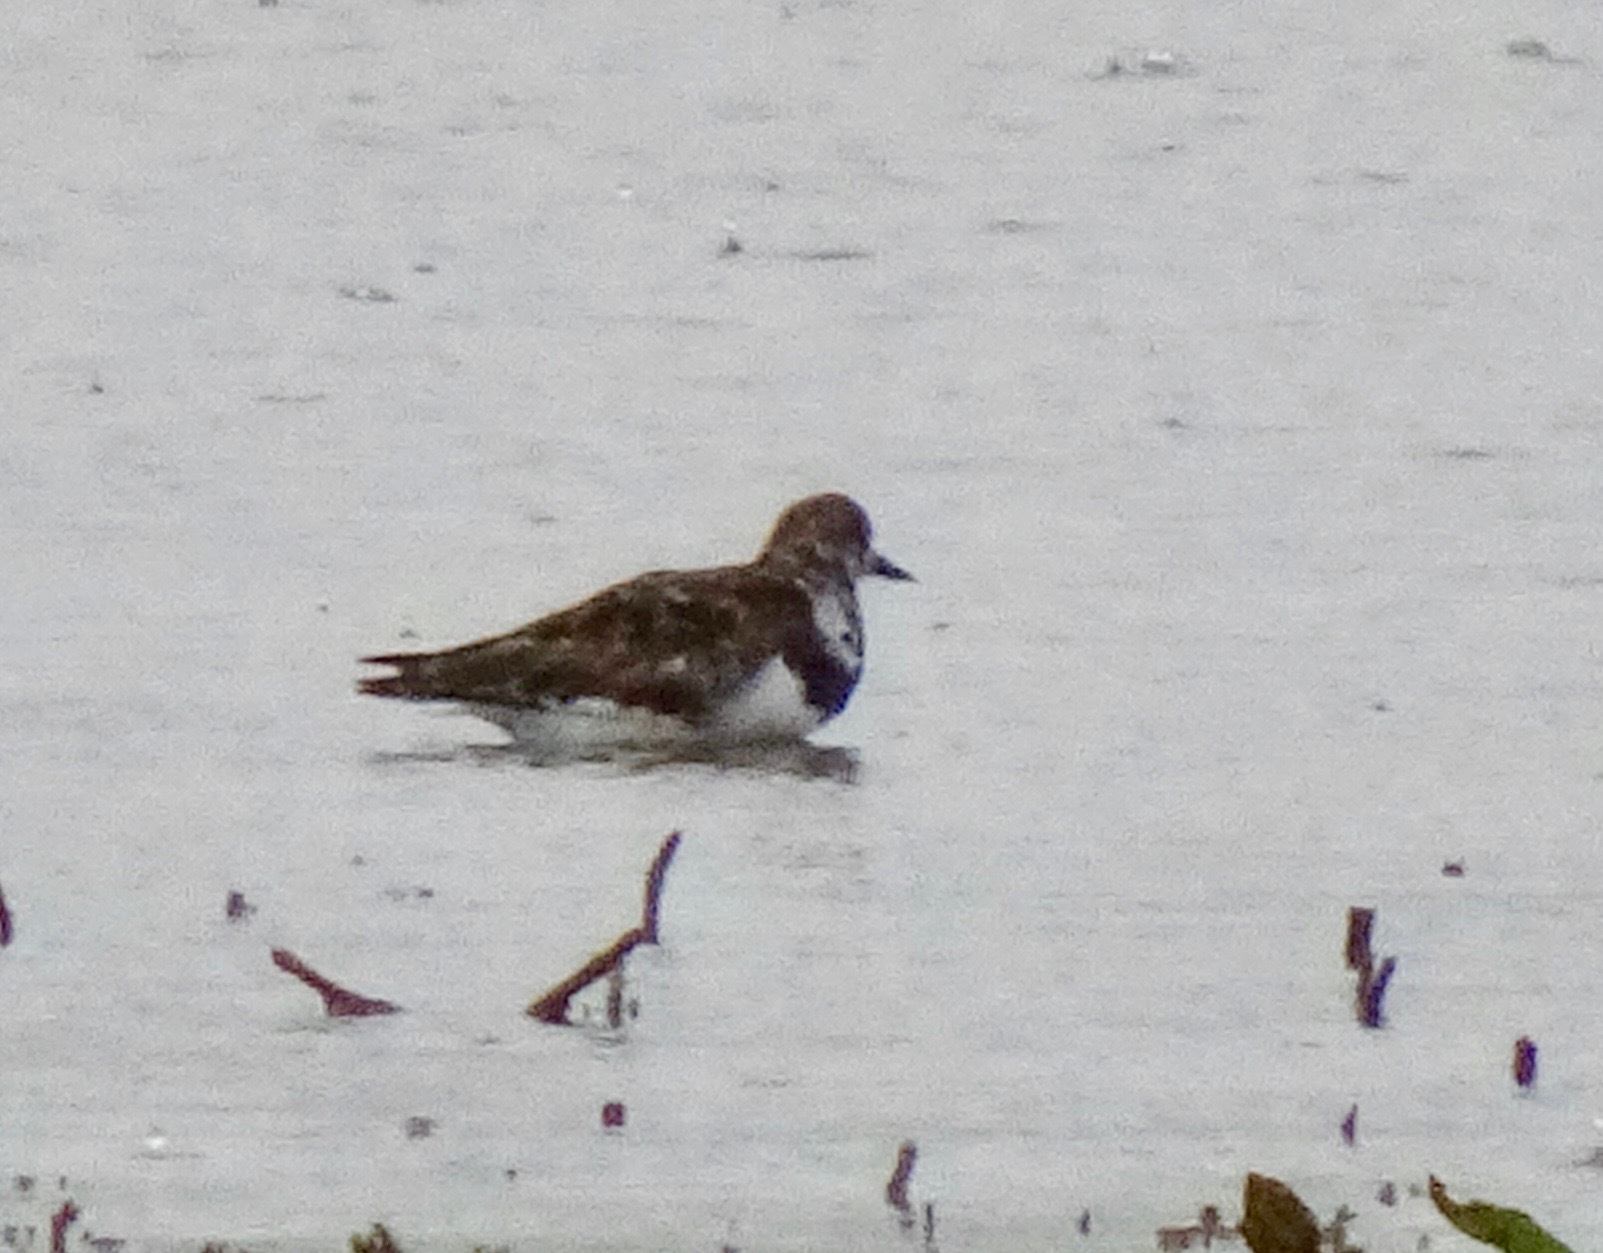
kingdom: Animalia
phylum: Chordata
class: Aves
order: Charadriiformes
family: Scolopacidae
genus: Arenaria
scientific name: Arenaria interpres
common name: Ruddy turnstone
